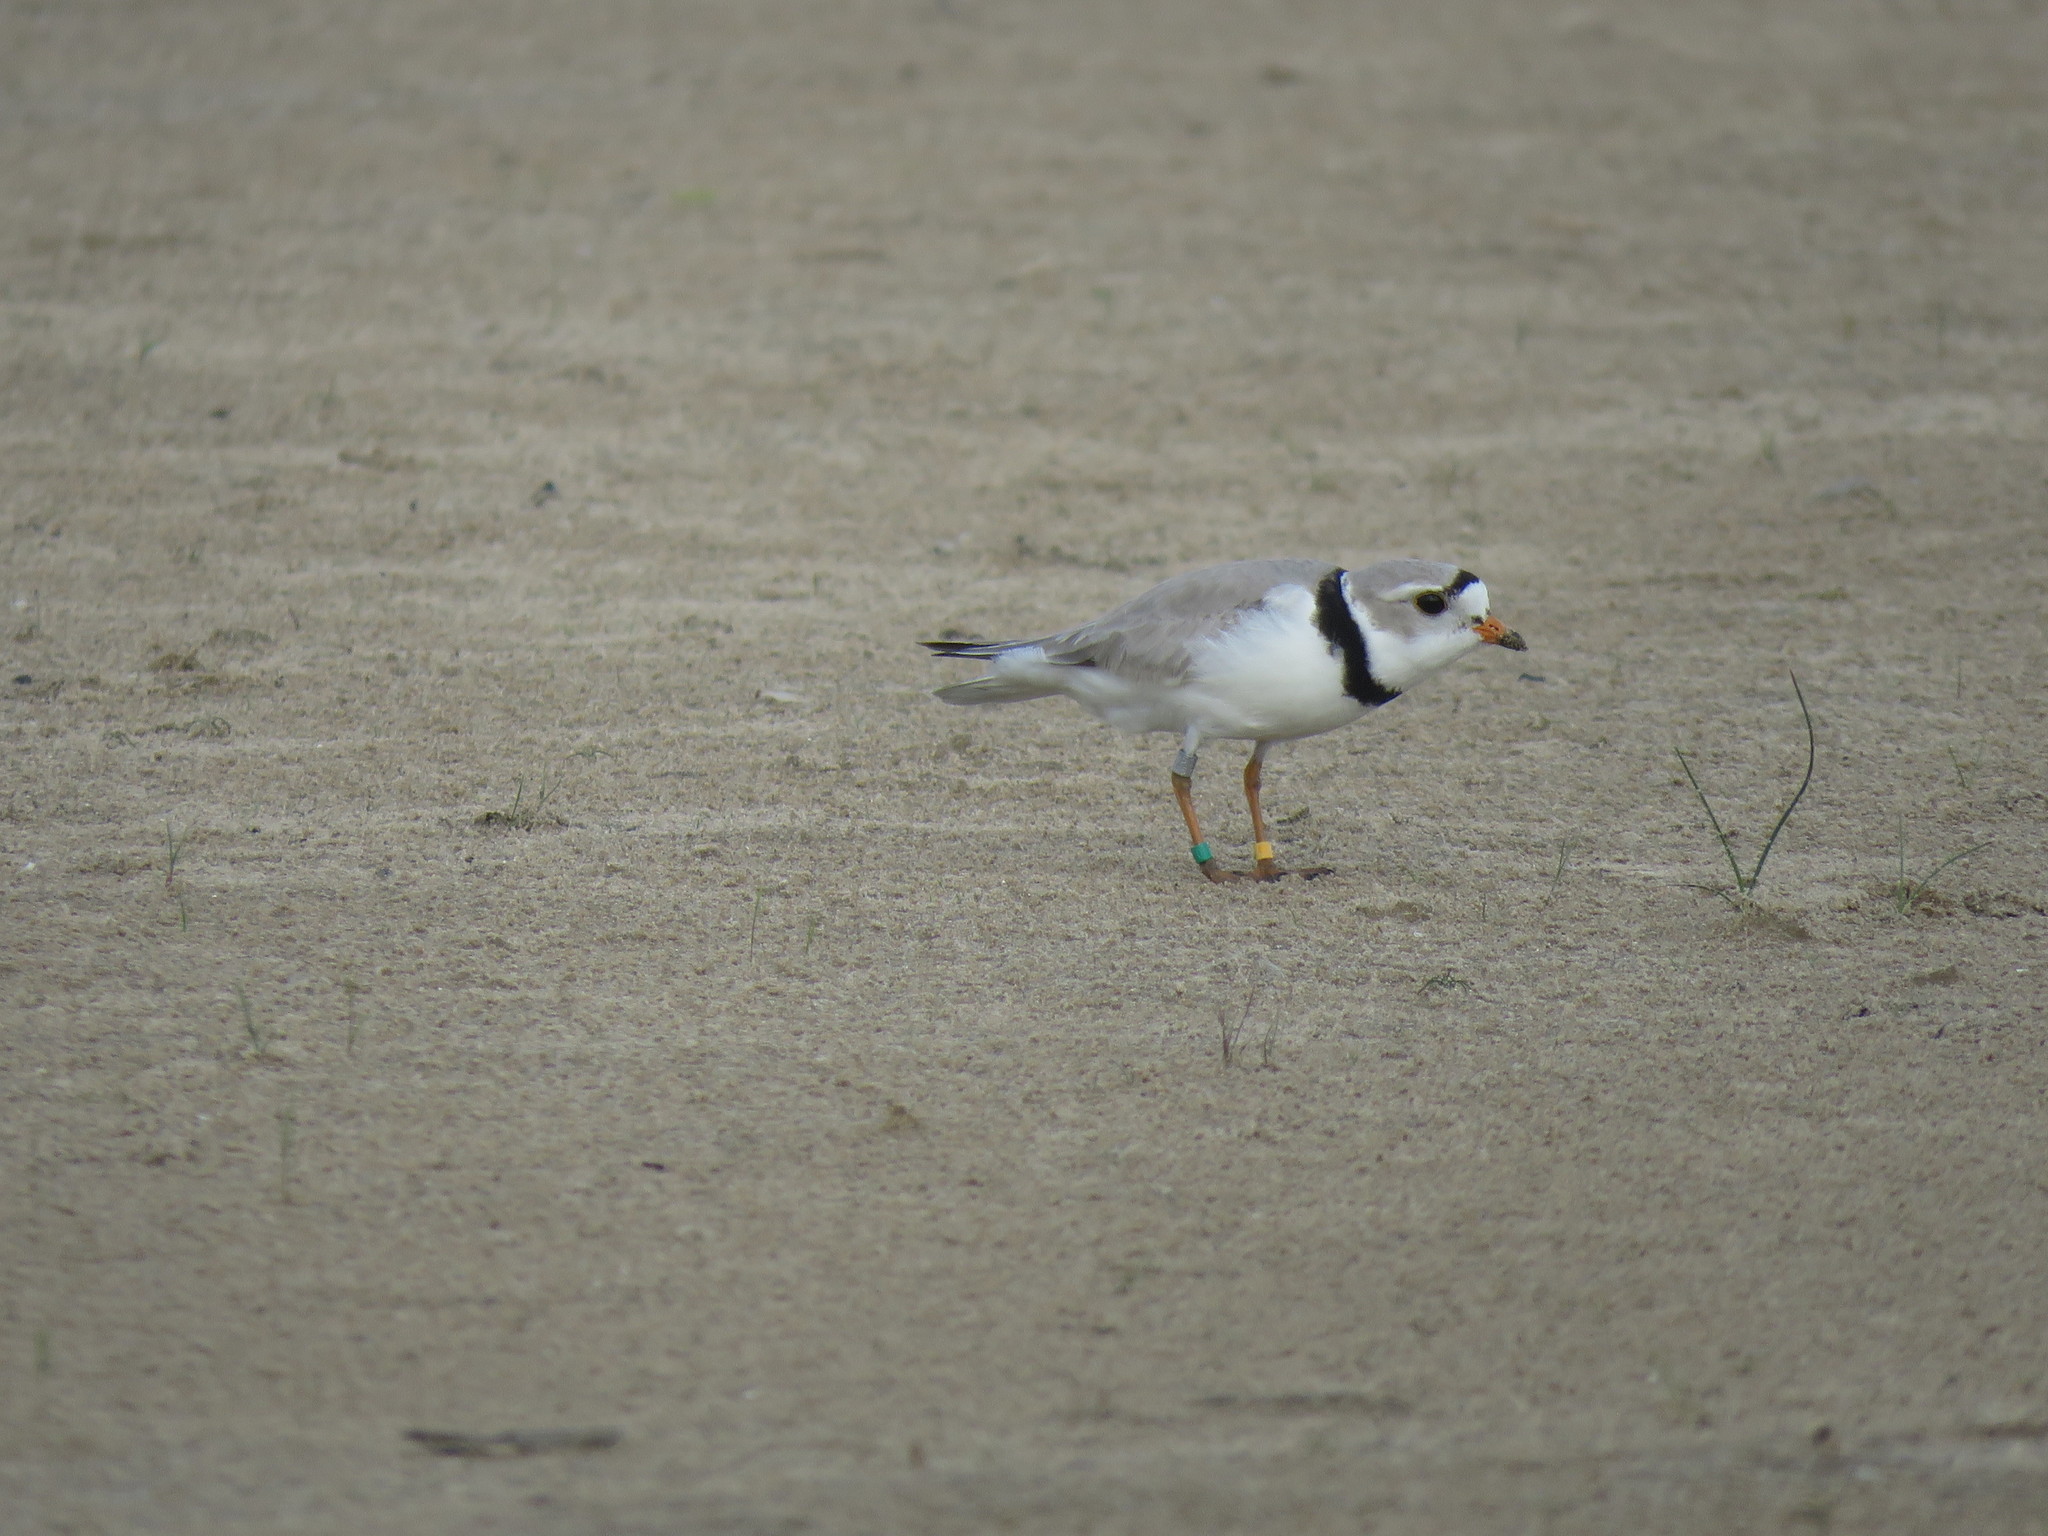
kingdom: Animalia
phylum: Chordata
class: Aves
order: Charadriiformes
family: Charadriidae
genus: Charadrius
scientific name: Charadrius melodus
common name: Piping plover
